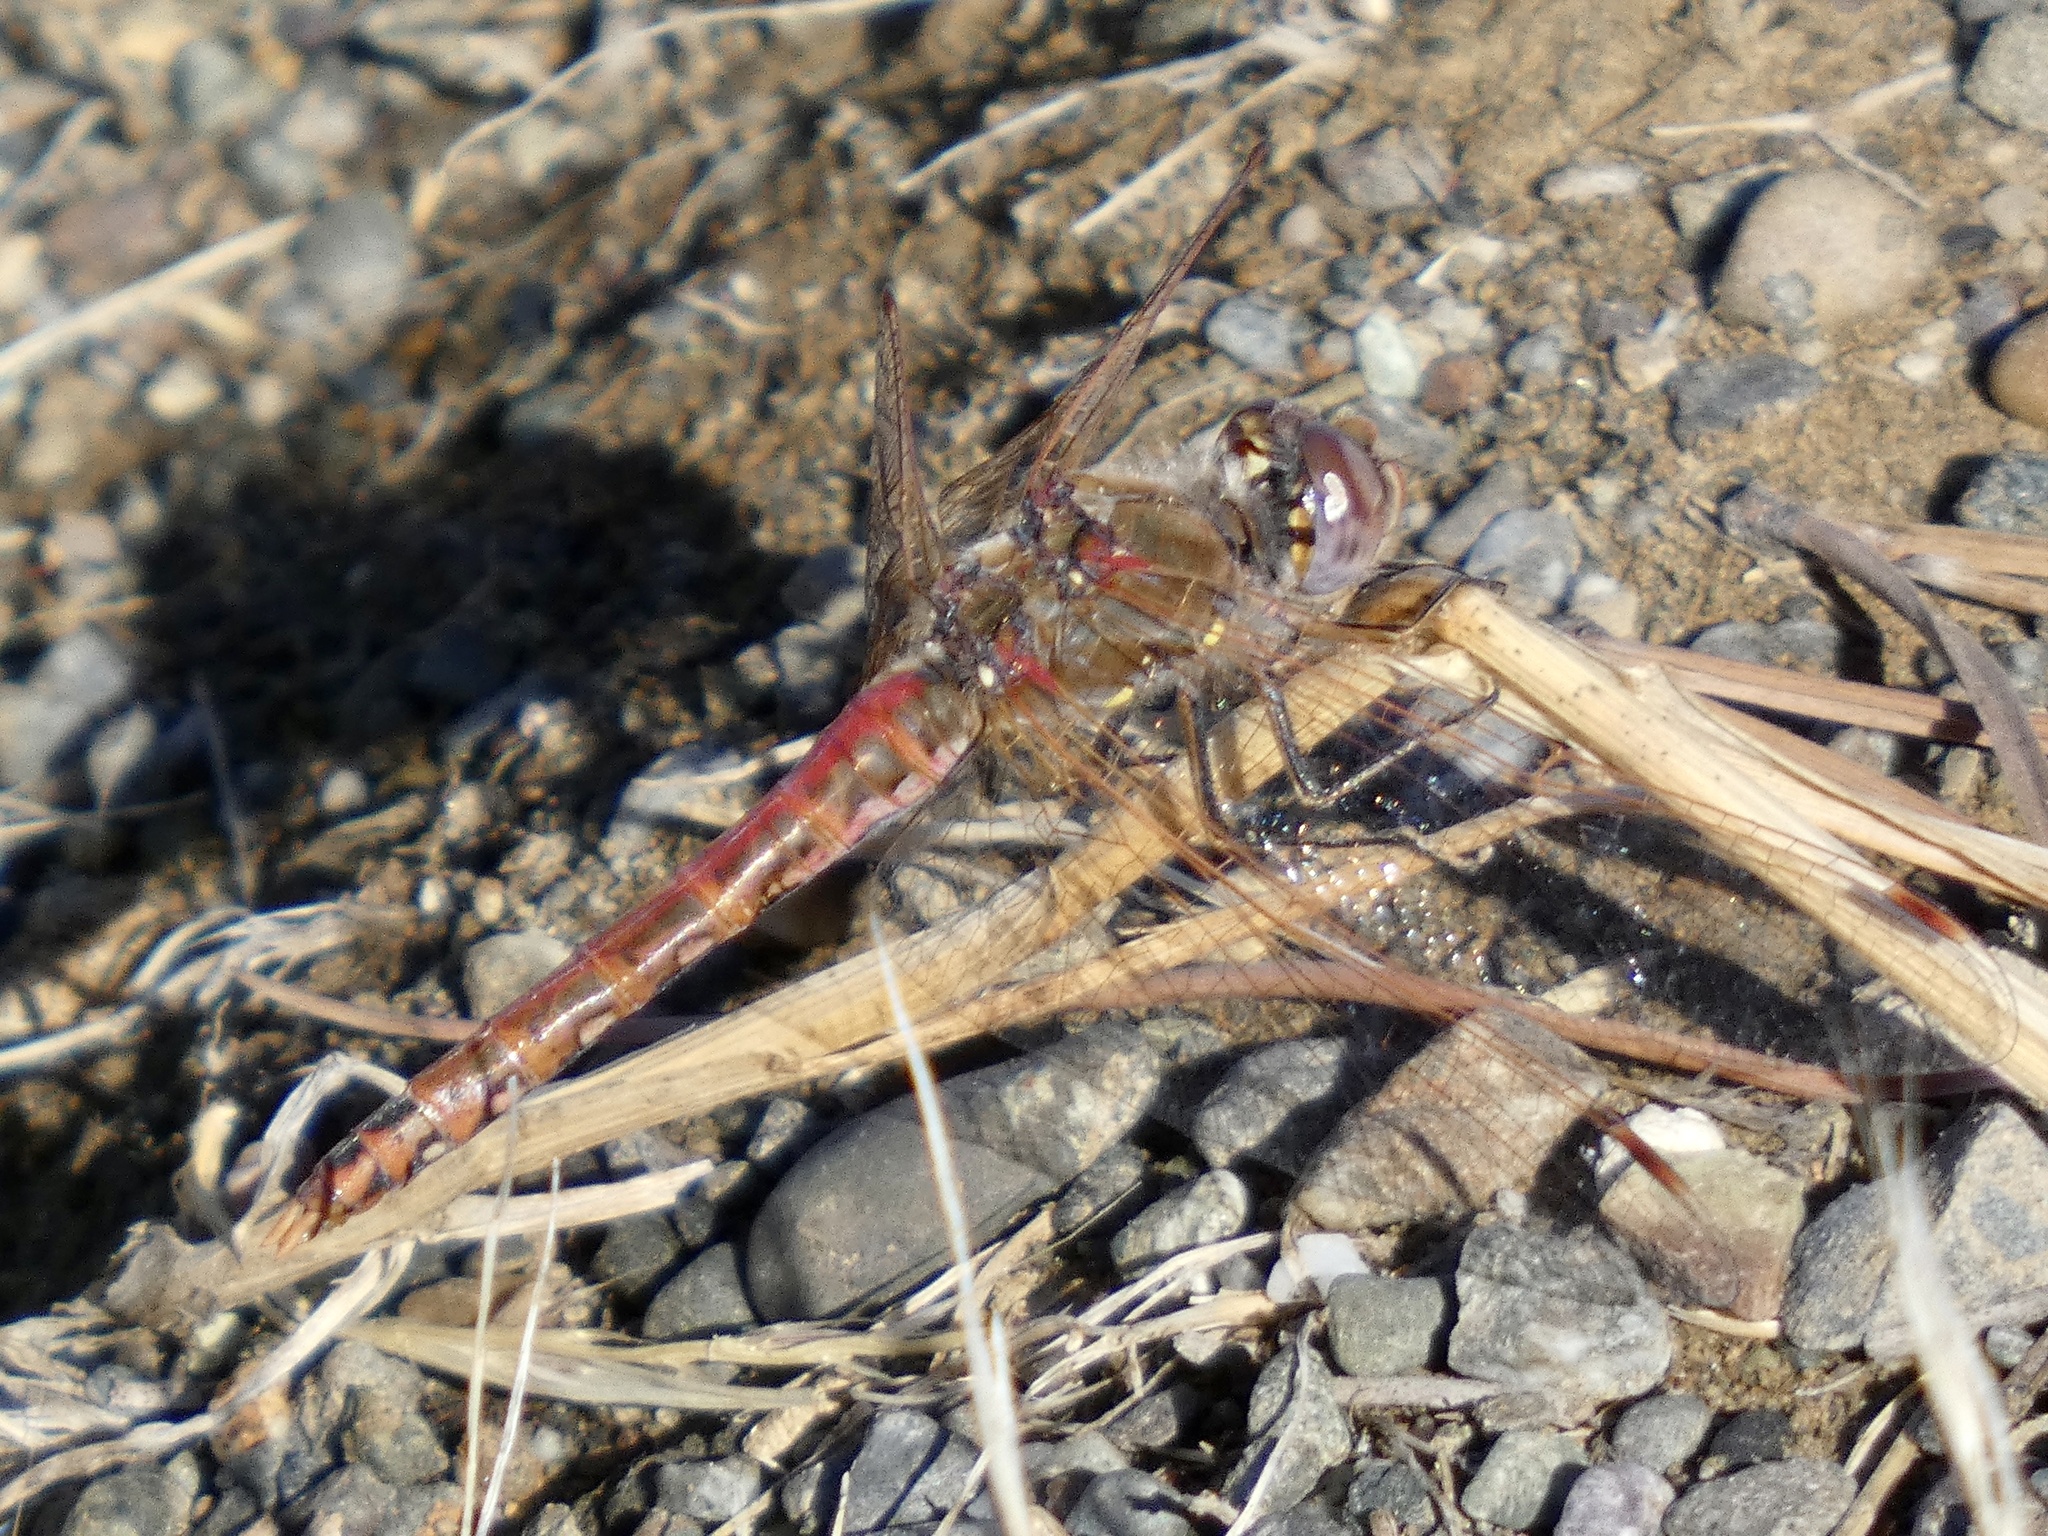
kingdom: Animalia
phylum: Arthropoda
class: Insecta
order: Odonata
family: Libellulidae
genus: Sympetrum
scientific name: Sympetrum corruptum
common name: Variegated meadowhawk
